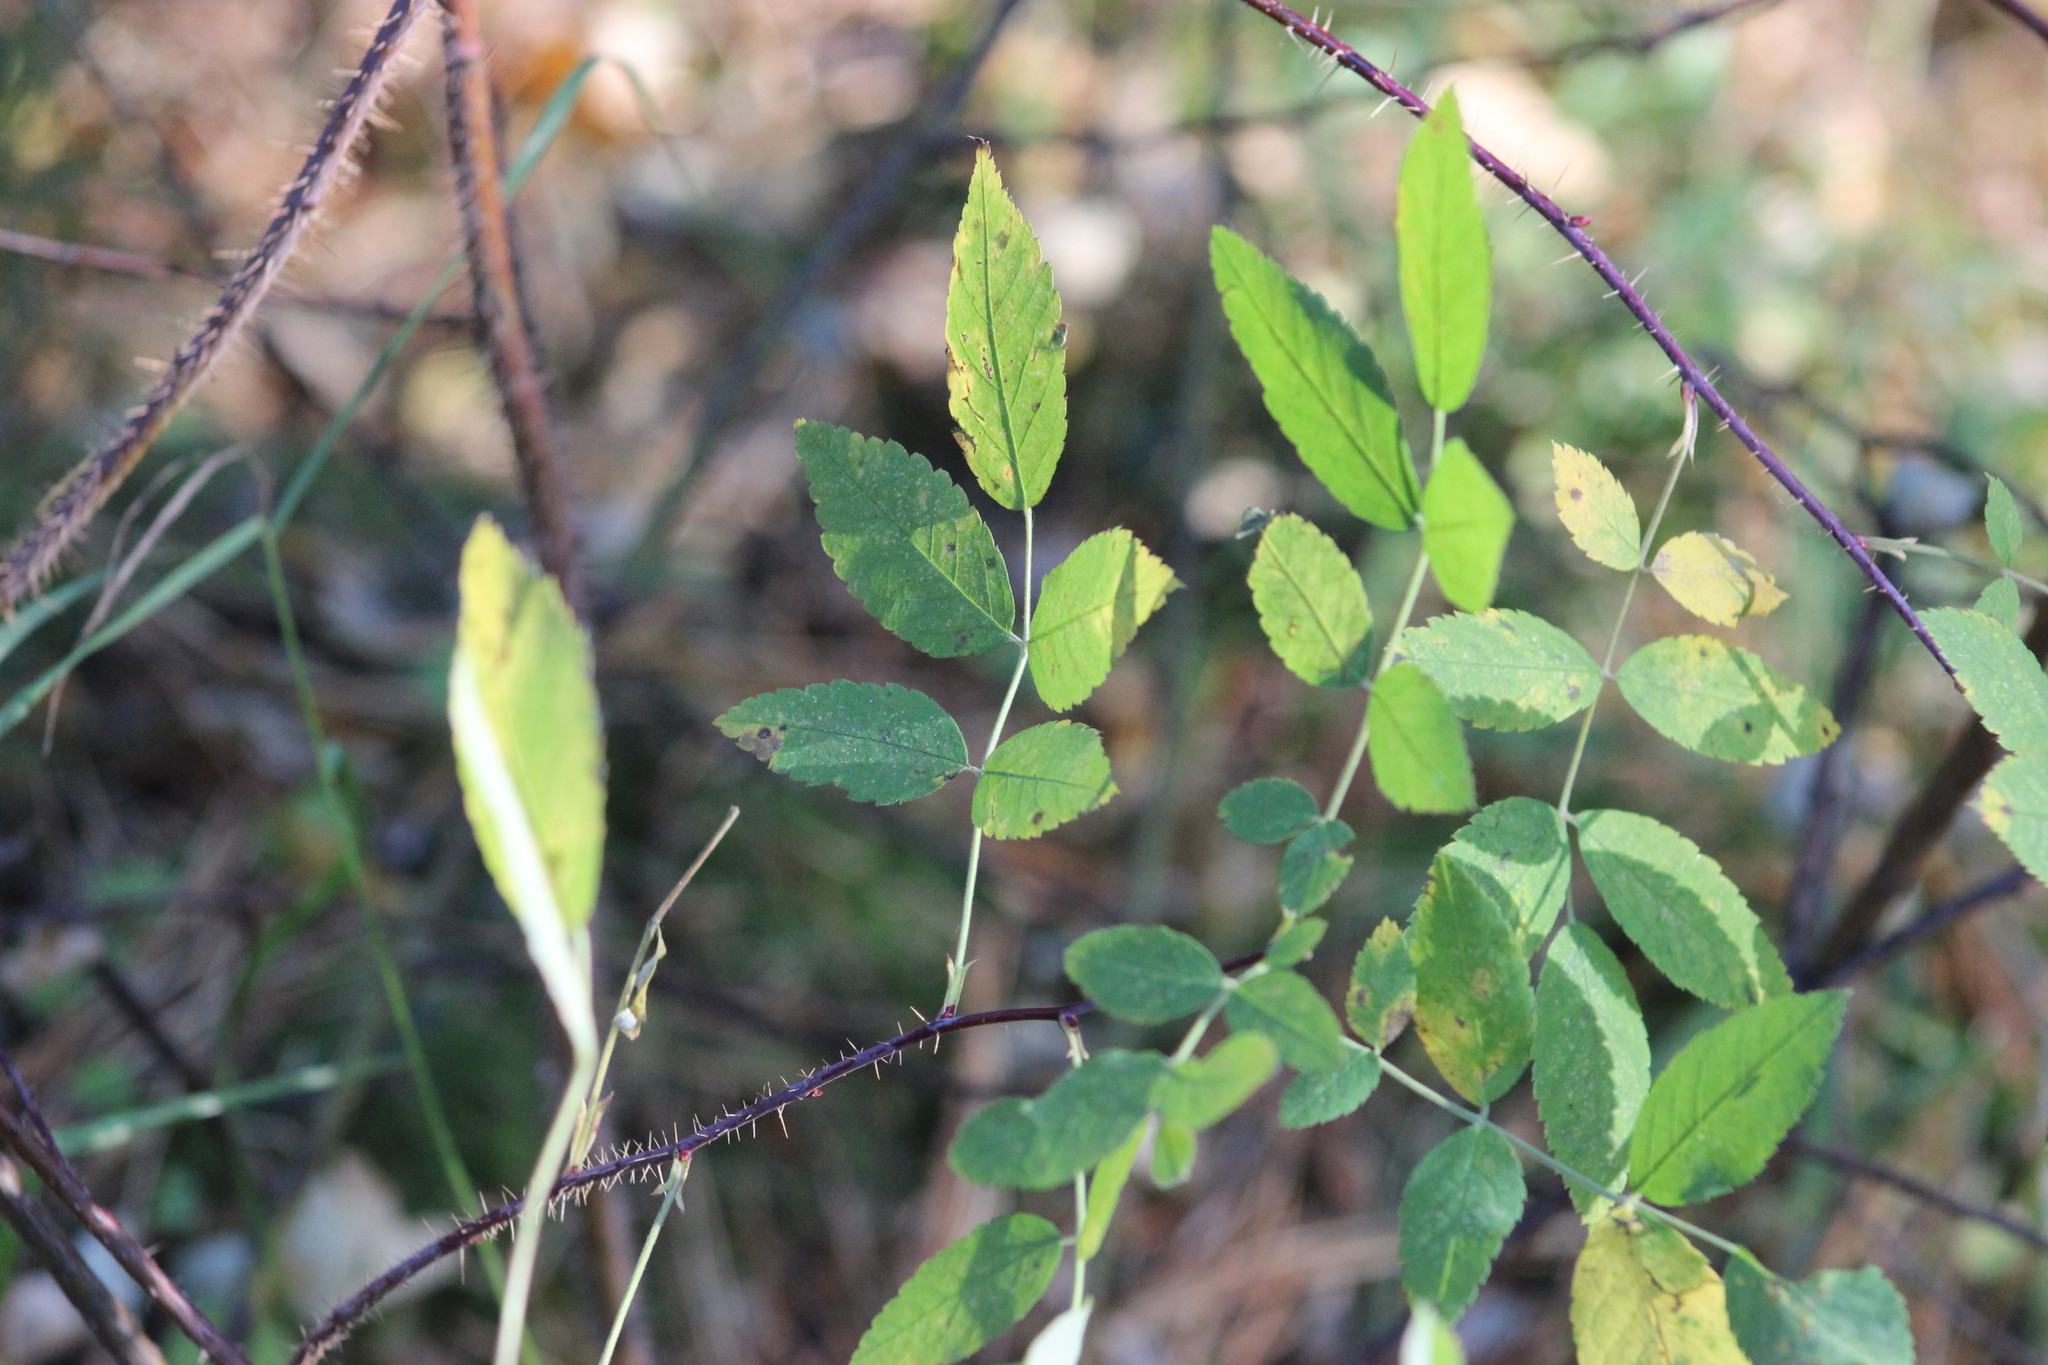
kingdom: Plantae
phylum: Tracheophyta
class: Magnoliopsida
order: Rosales
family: Rosaceae
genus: Rosa
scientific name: Rosa acicularis
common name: Prickly rose
